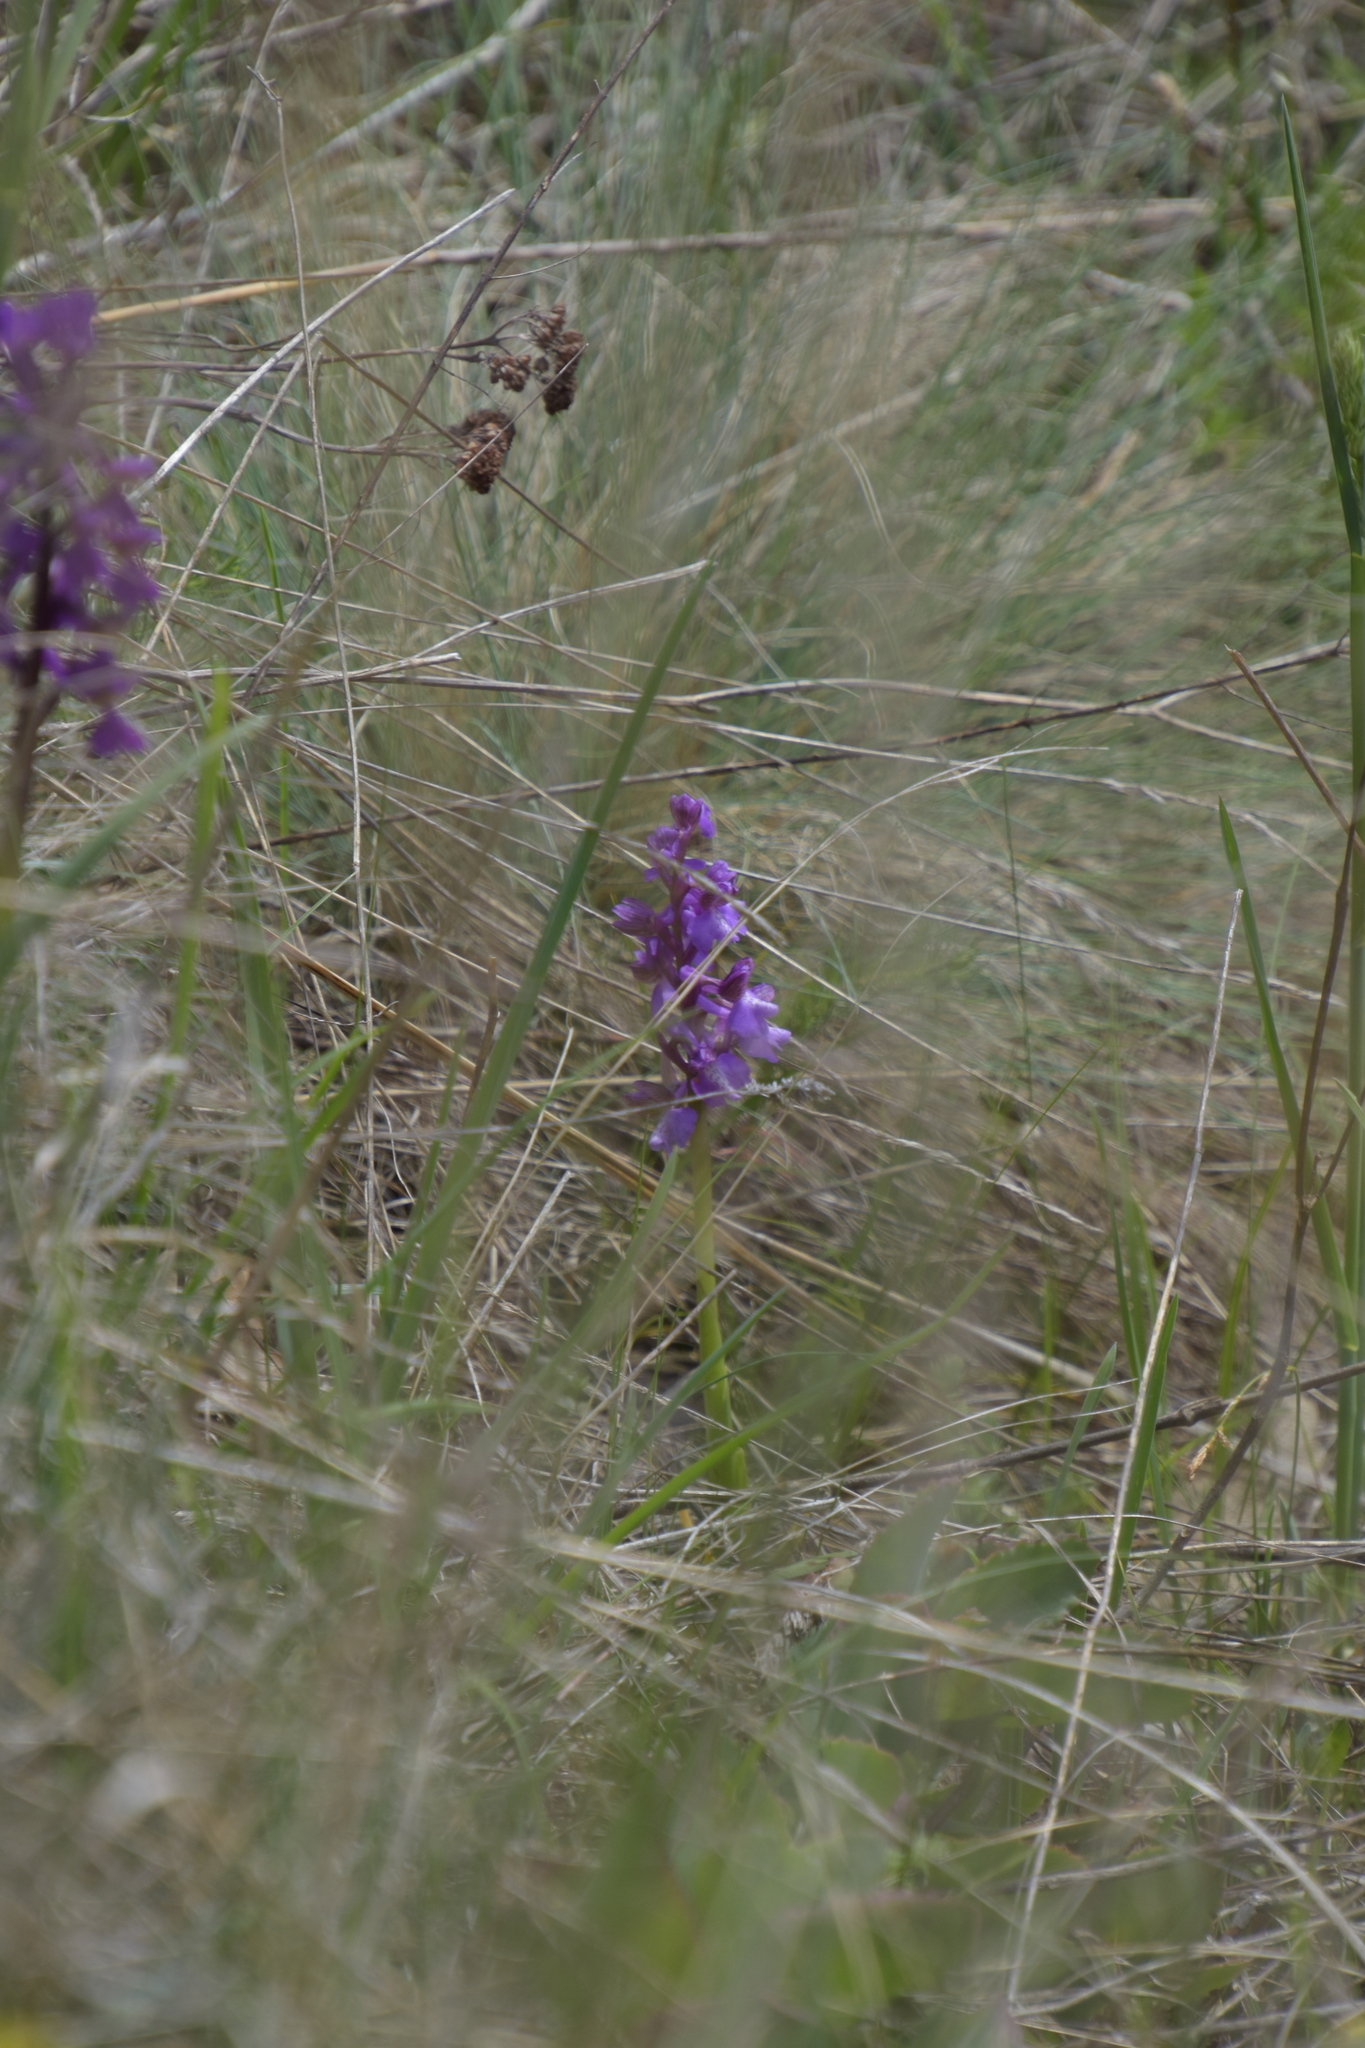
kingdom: Plantae
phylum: Tracheophyta
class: Liliopsida
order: Asparagales
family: Orchidaceae
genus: Anacamptis
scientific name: Anacamptis morio
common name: Green-winged orchid
